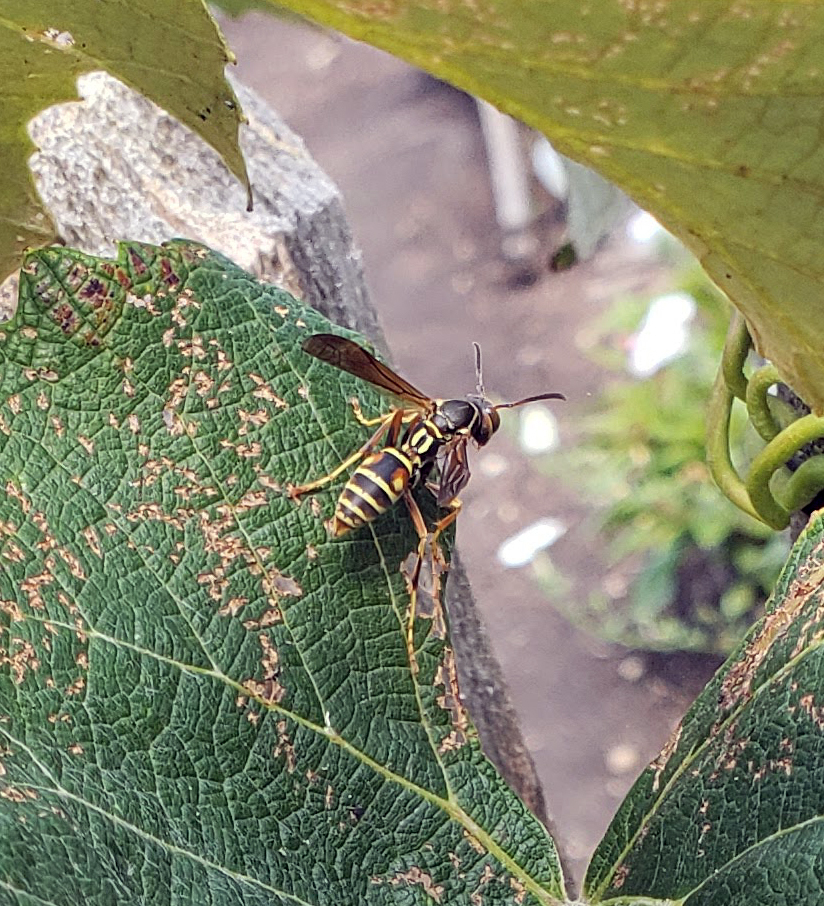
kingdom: Animalia
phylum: Arthropoda
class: Insecta
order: Hymenoptera
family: Eumenidae
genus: Polistes
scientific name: Polistes fuscatus
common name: Dark paper wasp
